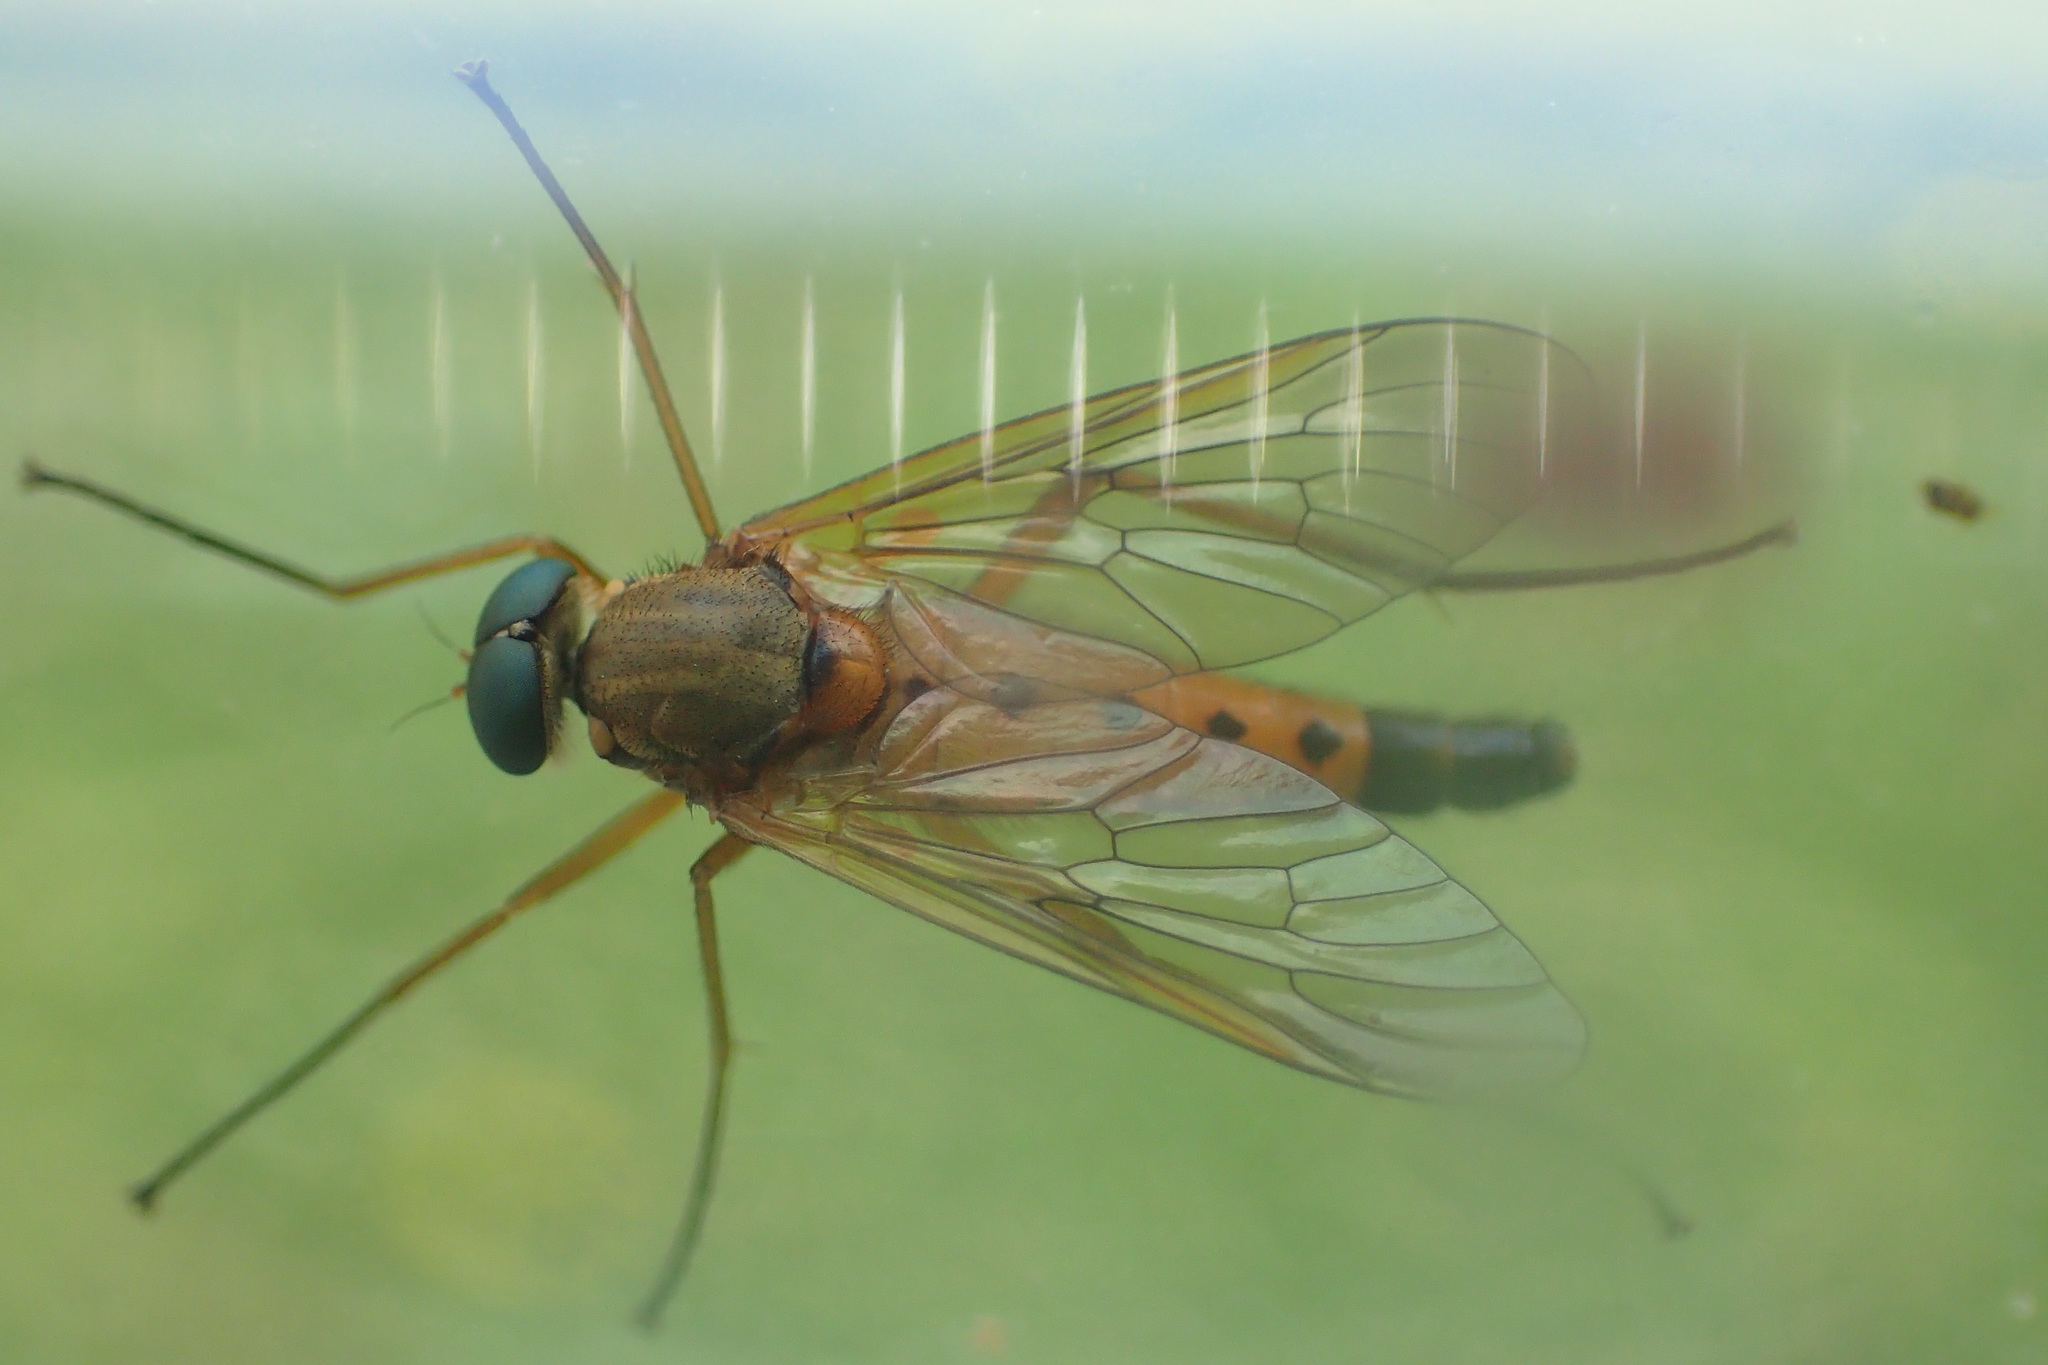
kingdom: Animalia
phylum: Arthropoda
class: Insecta
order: Diptera
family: Rhagionidae
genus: Rhagio
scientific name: Rhagio tringaria
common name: Marsh snipefly
